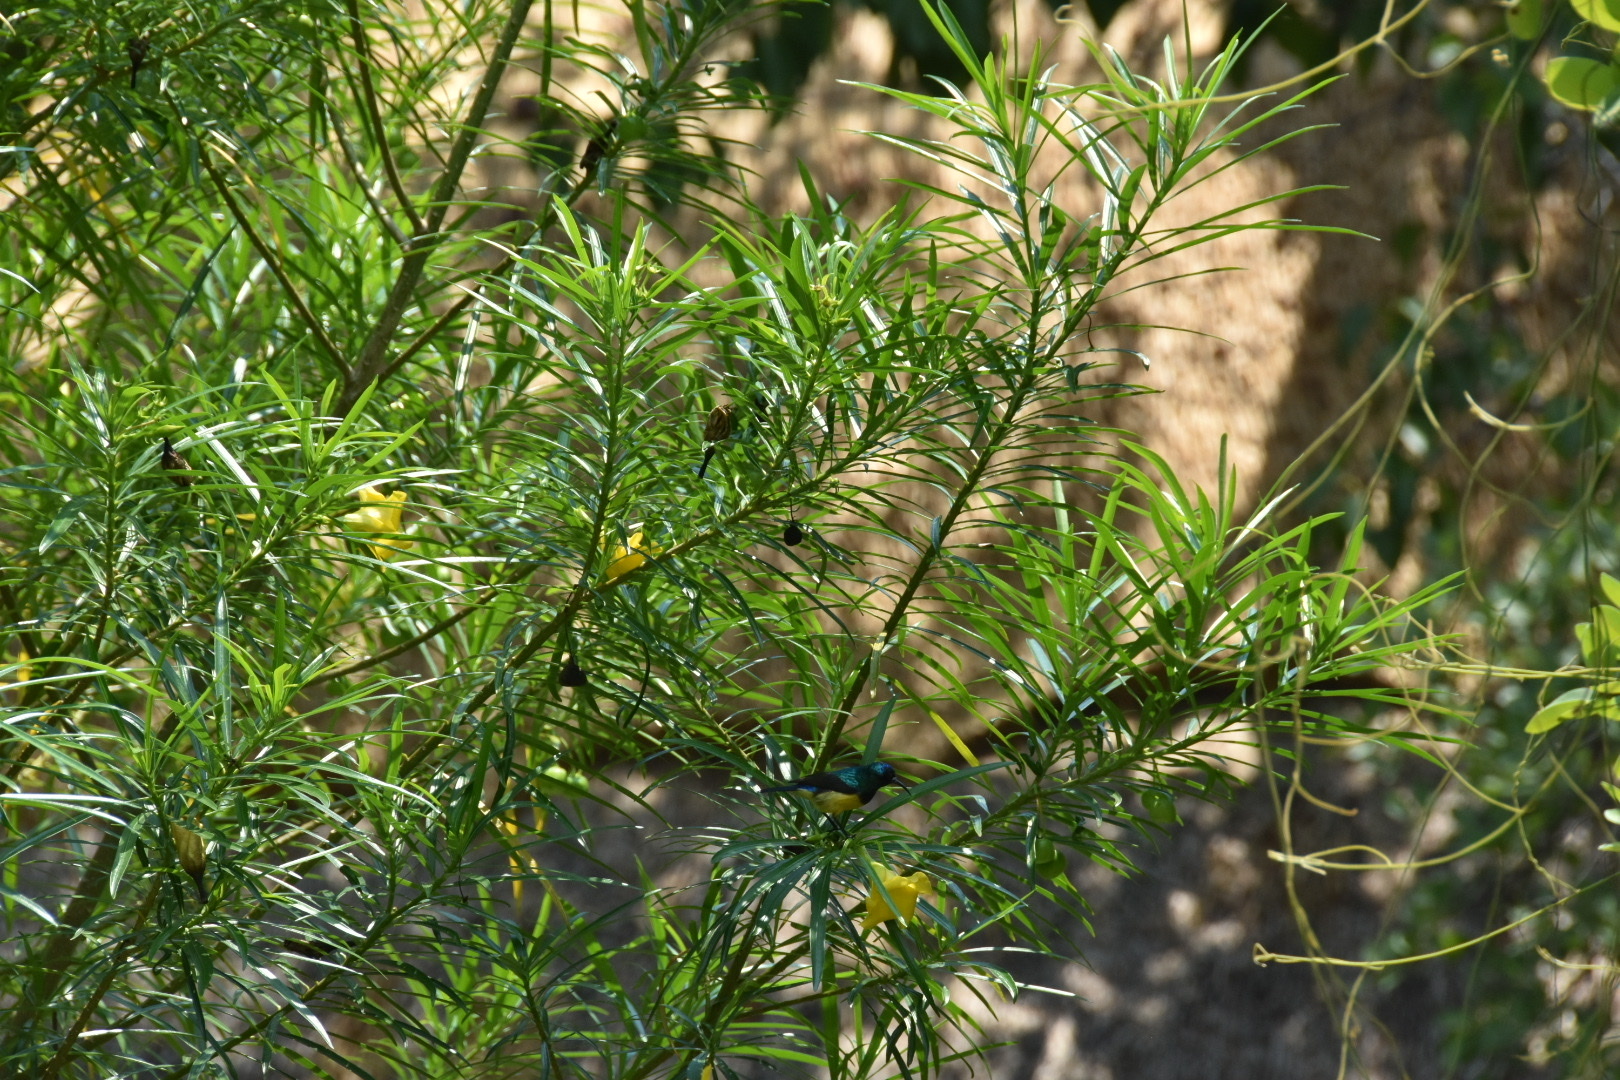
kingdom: Animalia
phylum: Chordata
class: Aves
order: Passeriformes
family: Nectariniidae
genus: Cinnyris
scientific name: Cinnyris venustus
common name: Variable sunbird
